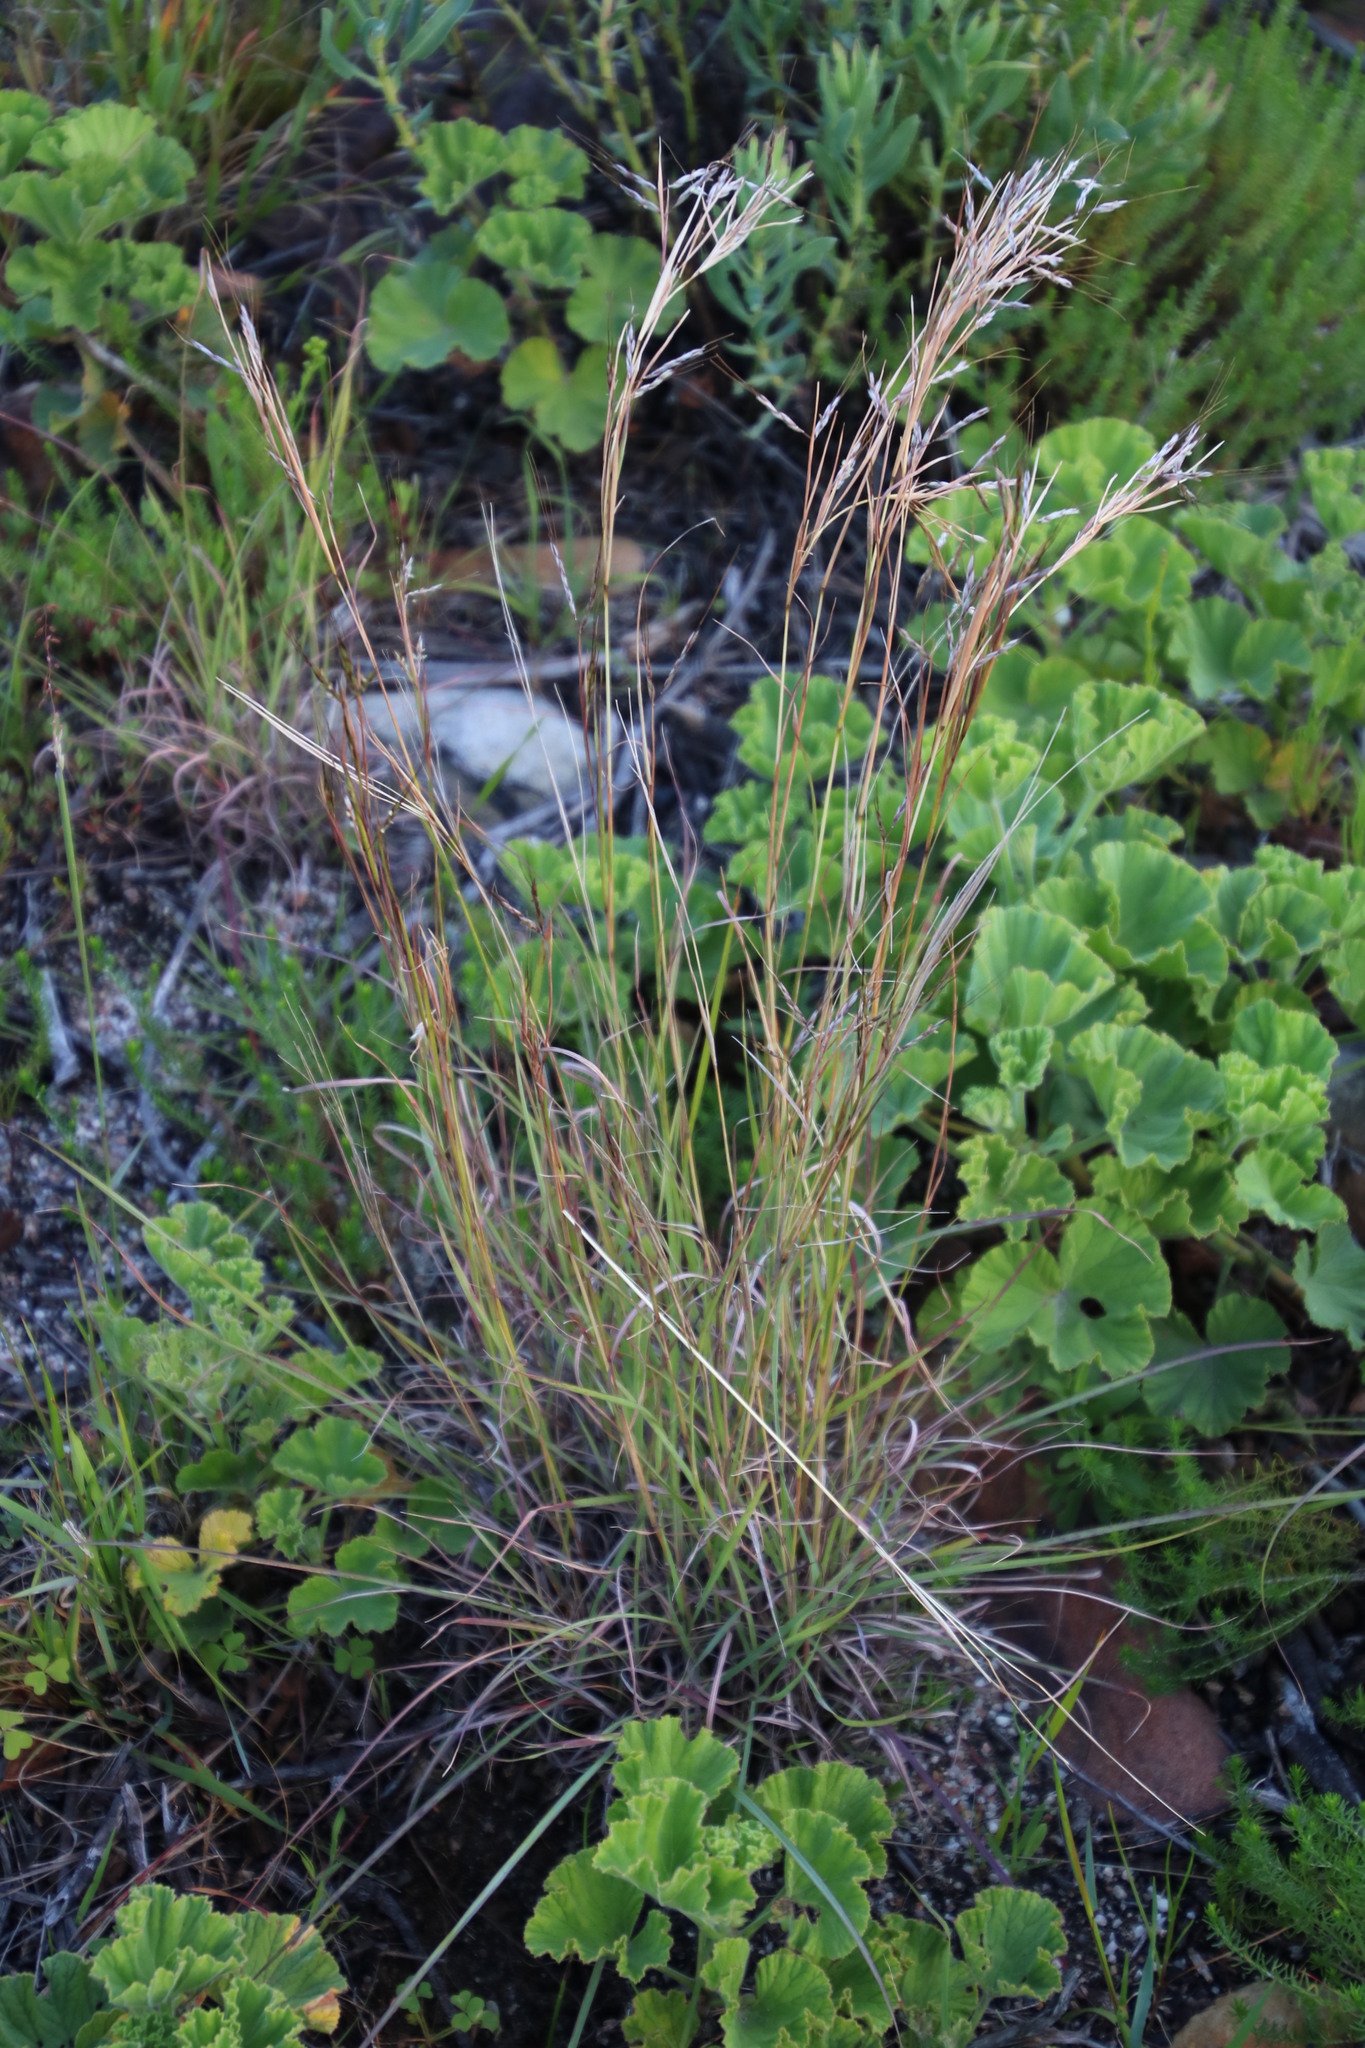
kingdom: Plantae
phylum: Tracheophyta
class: Liliopsida
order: Poales
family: Poaceae
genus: Hyparrhenia
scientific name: Hyparrhenia hirta
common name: Thatching grass
